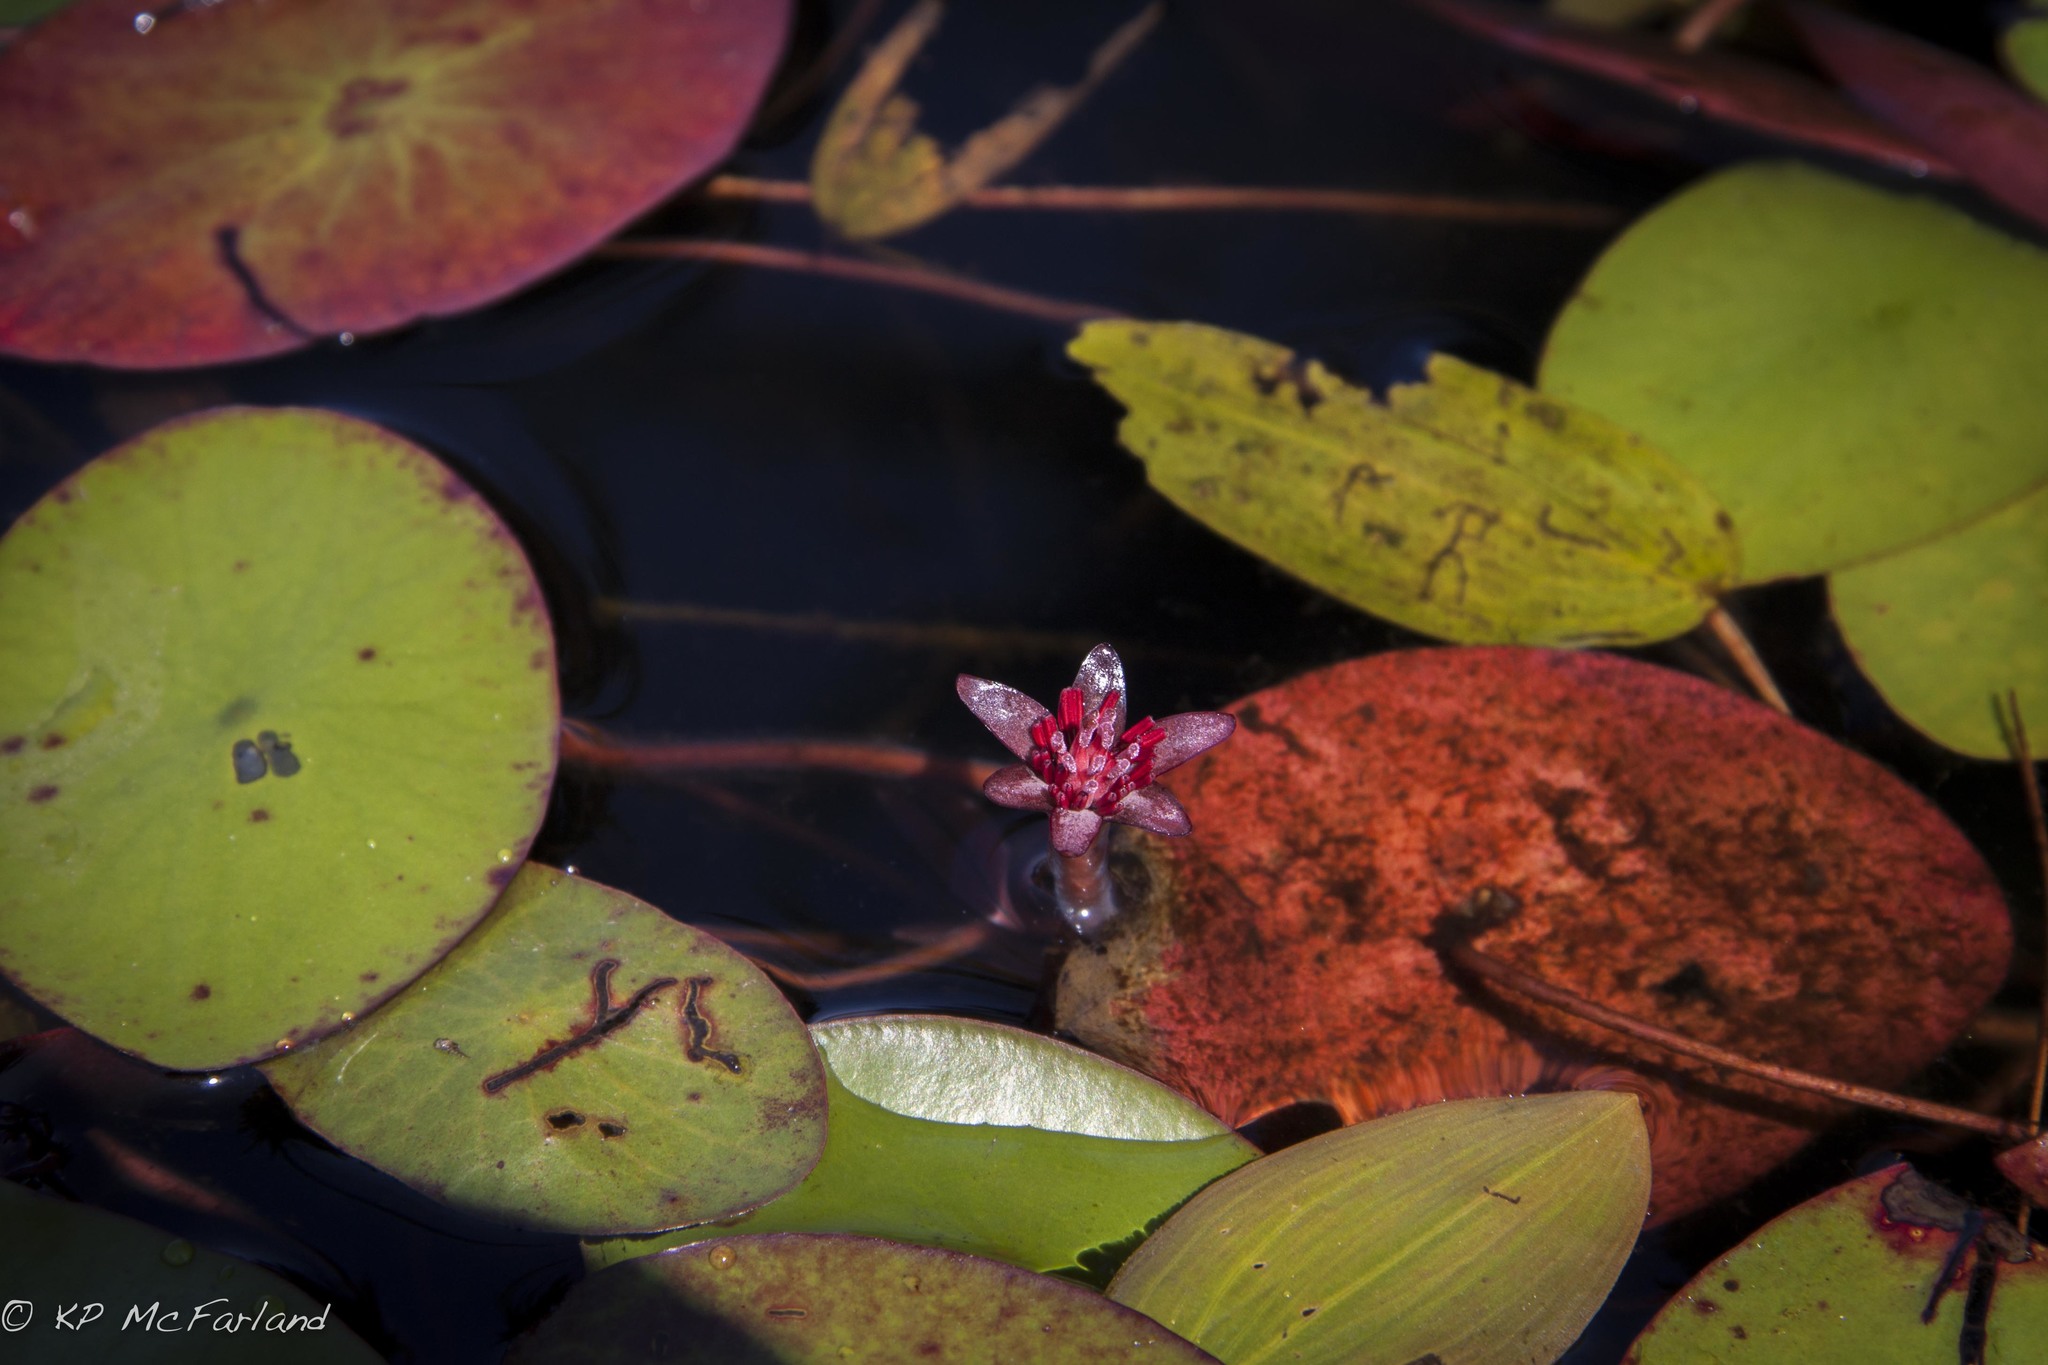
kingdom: Plantae
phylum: Tracheophyta
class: Magnoliopsida
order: Nymphaeales
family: Cabombaceae
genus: Brasenia
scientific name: Brasenia schreberi
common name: Water-shield
